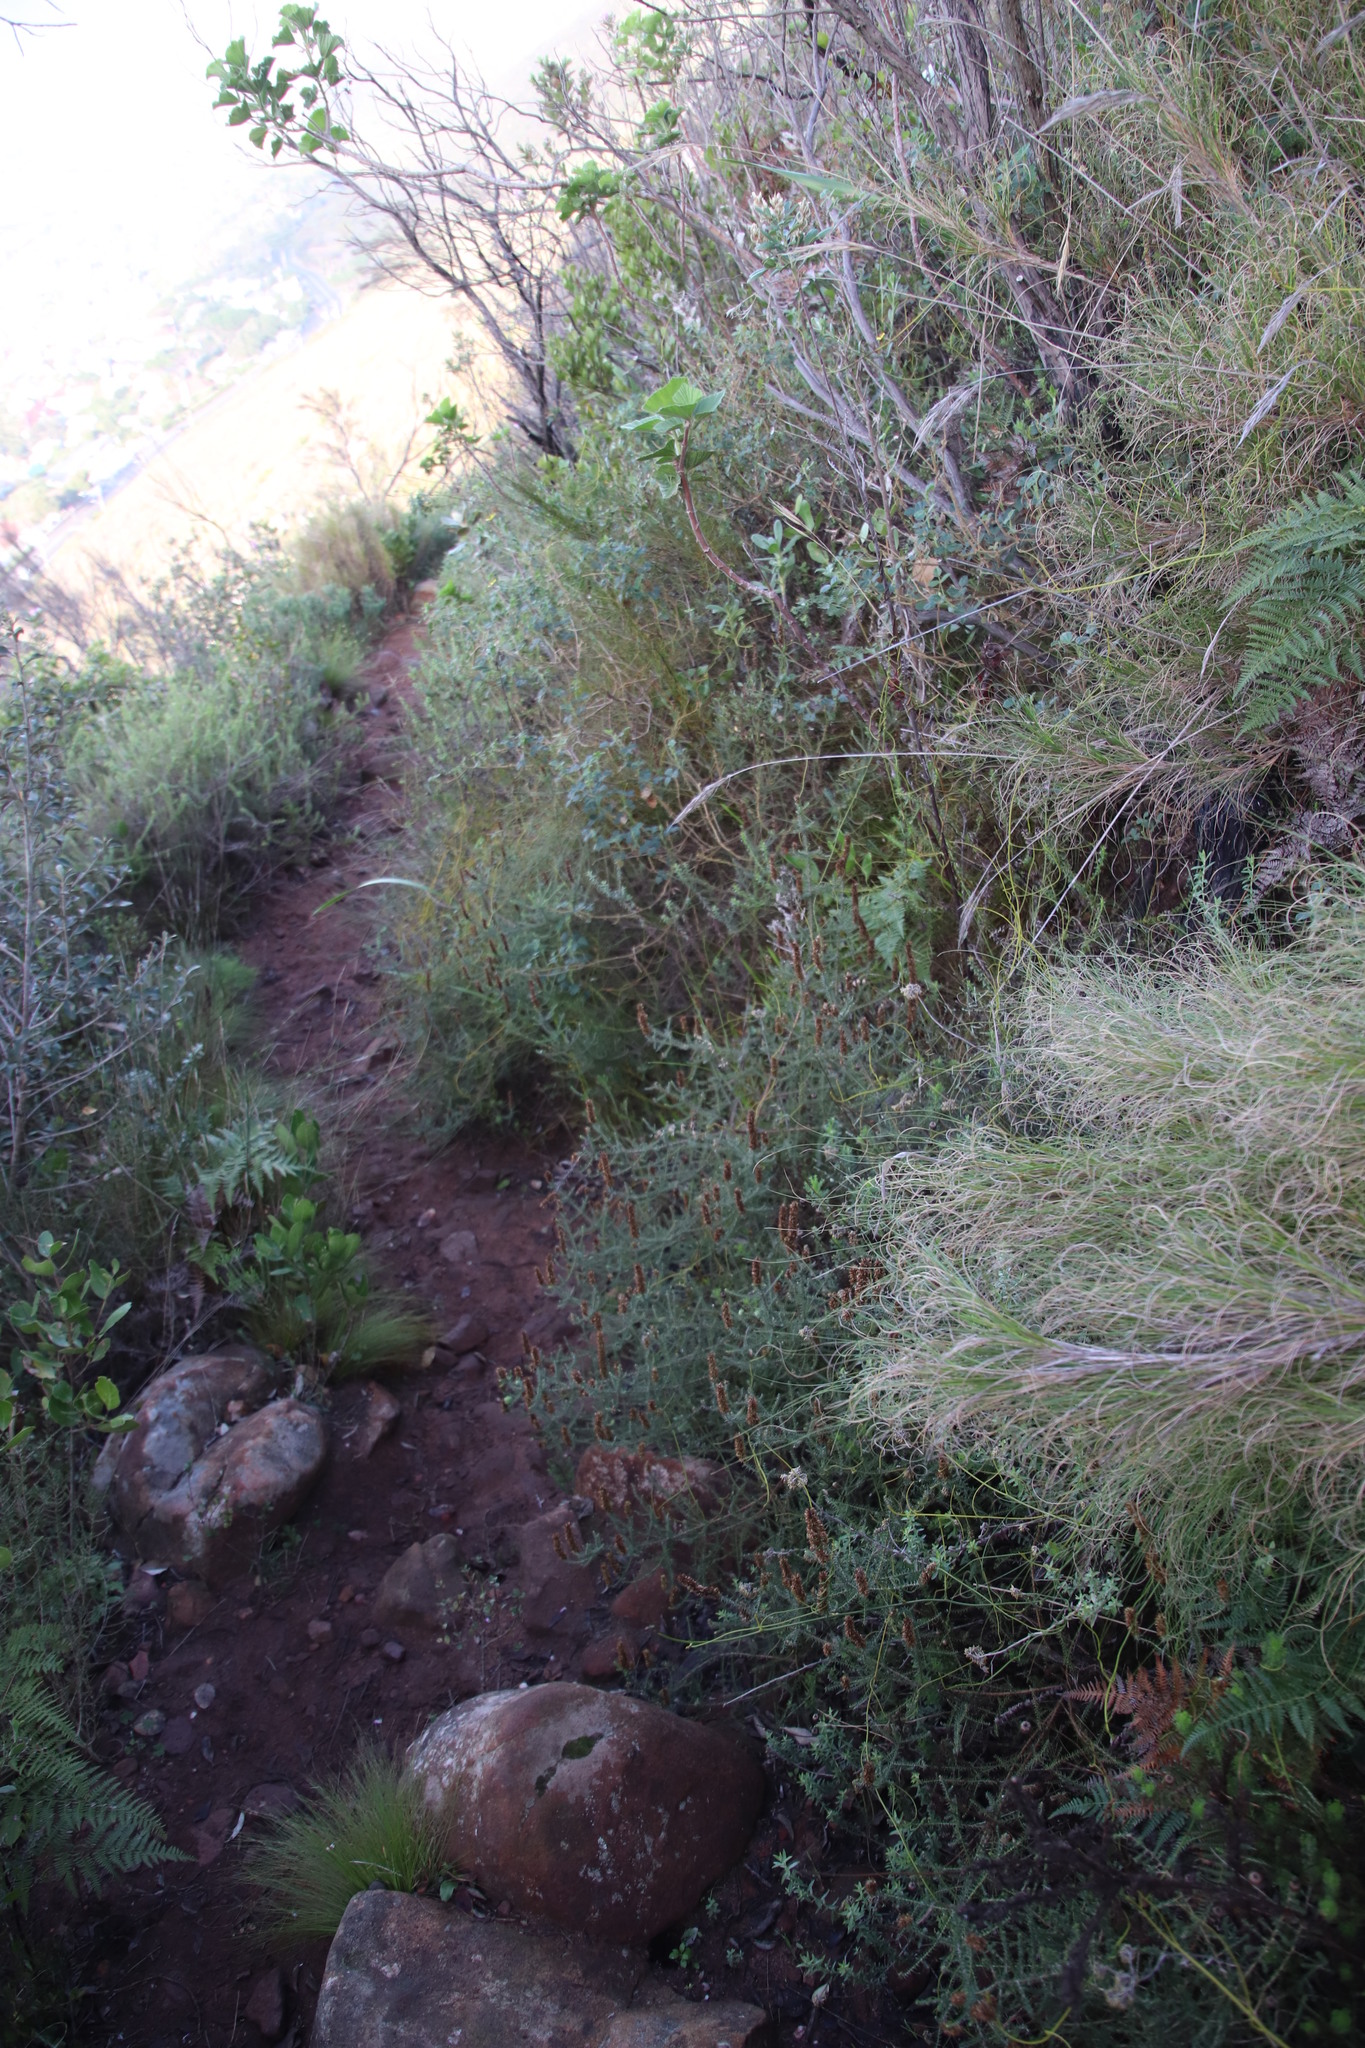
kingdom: Plantae
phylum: Tracheophyta
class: Magnoliopsida
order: Asterales
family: Asteraceae
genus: Seriphium
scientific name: Seriphium cinereum
